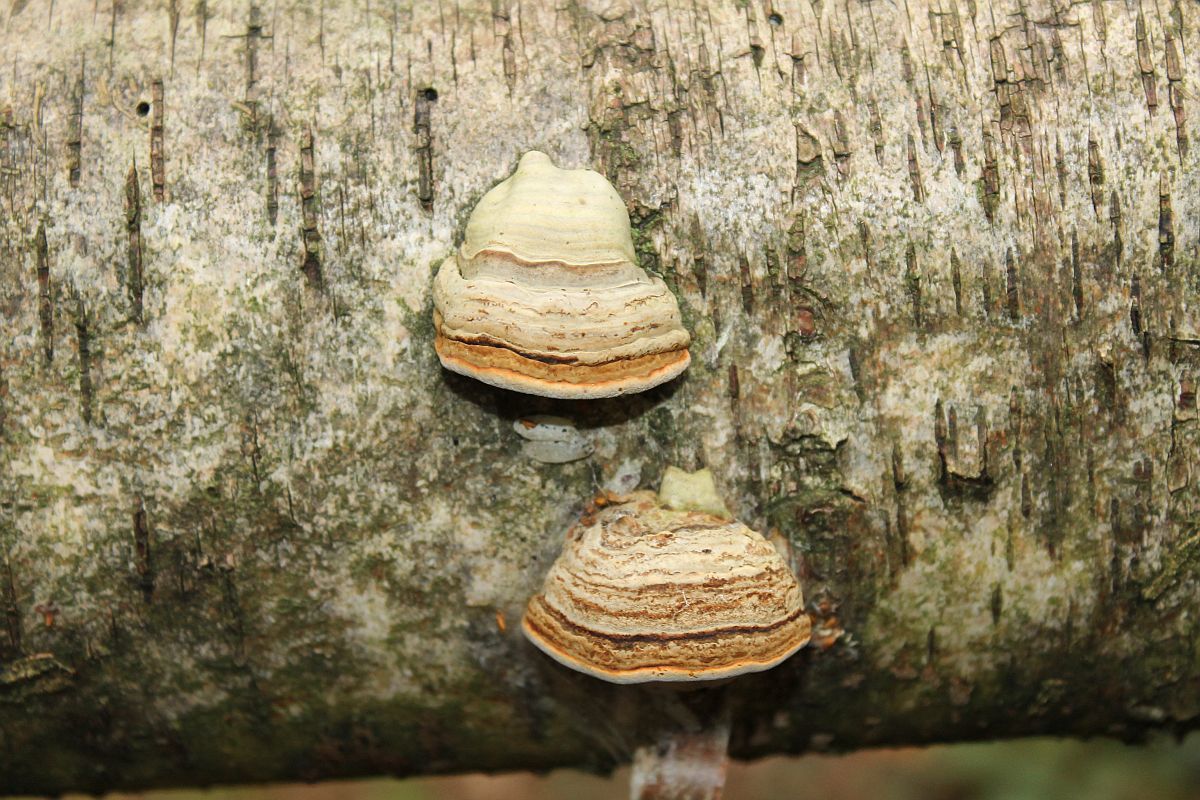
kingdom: Fungi
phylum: Basidiomycota
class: Agaricomycetes
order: Polyporales
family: Polyporaceae
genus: Fomes
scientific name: Fomes fomentarius
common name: Hoof fungus
